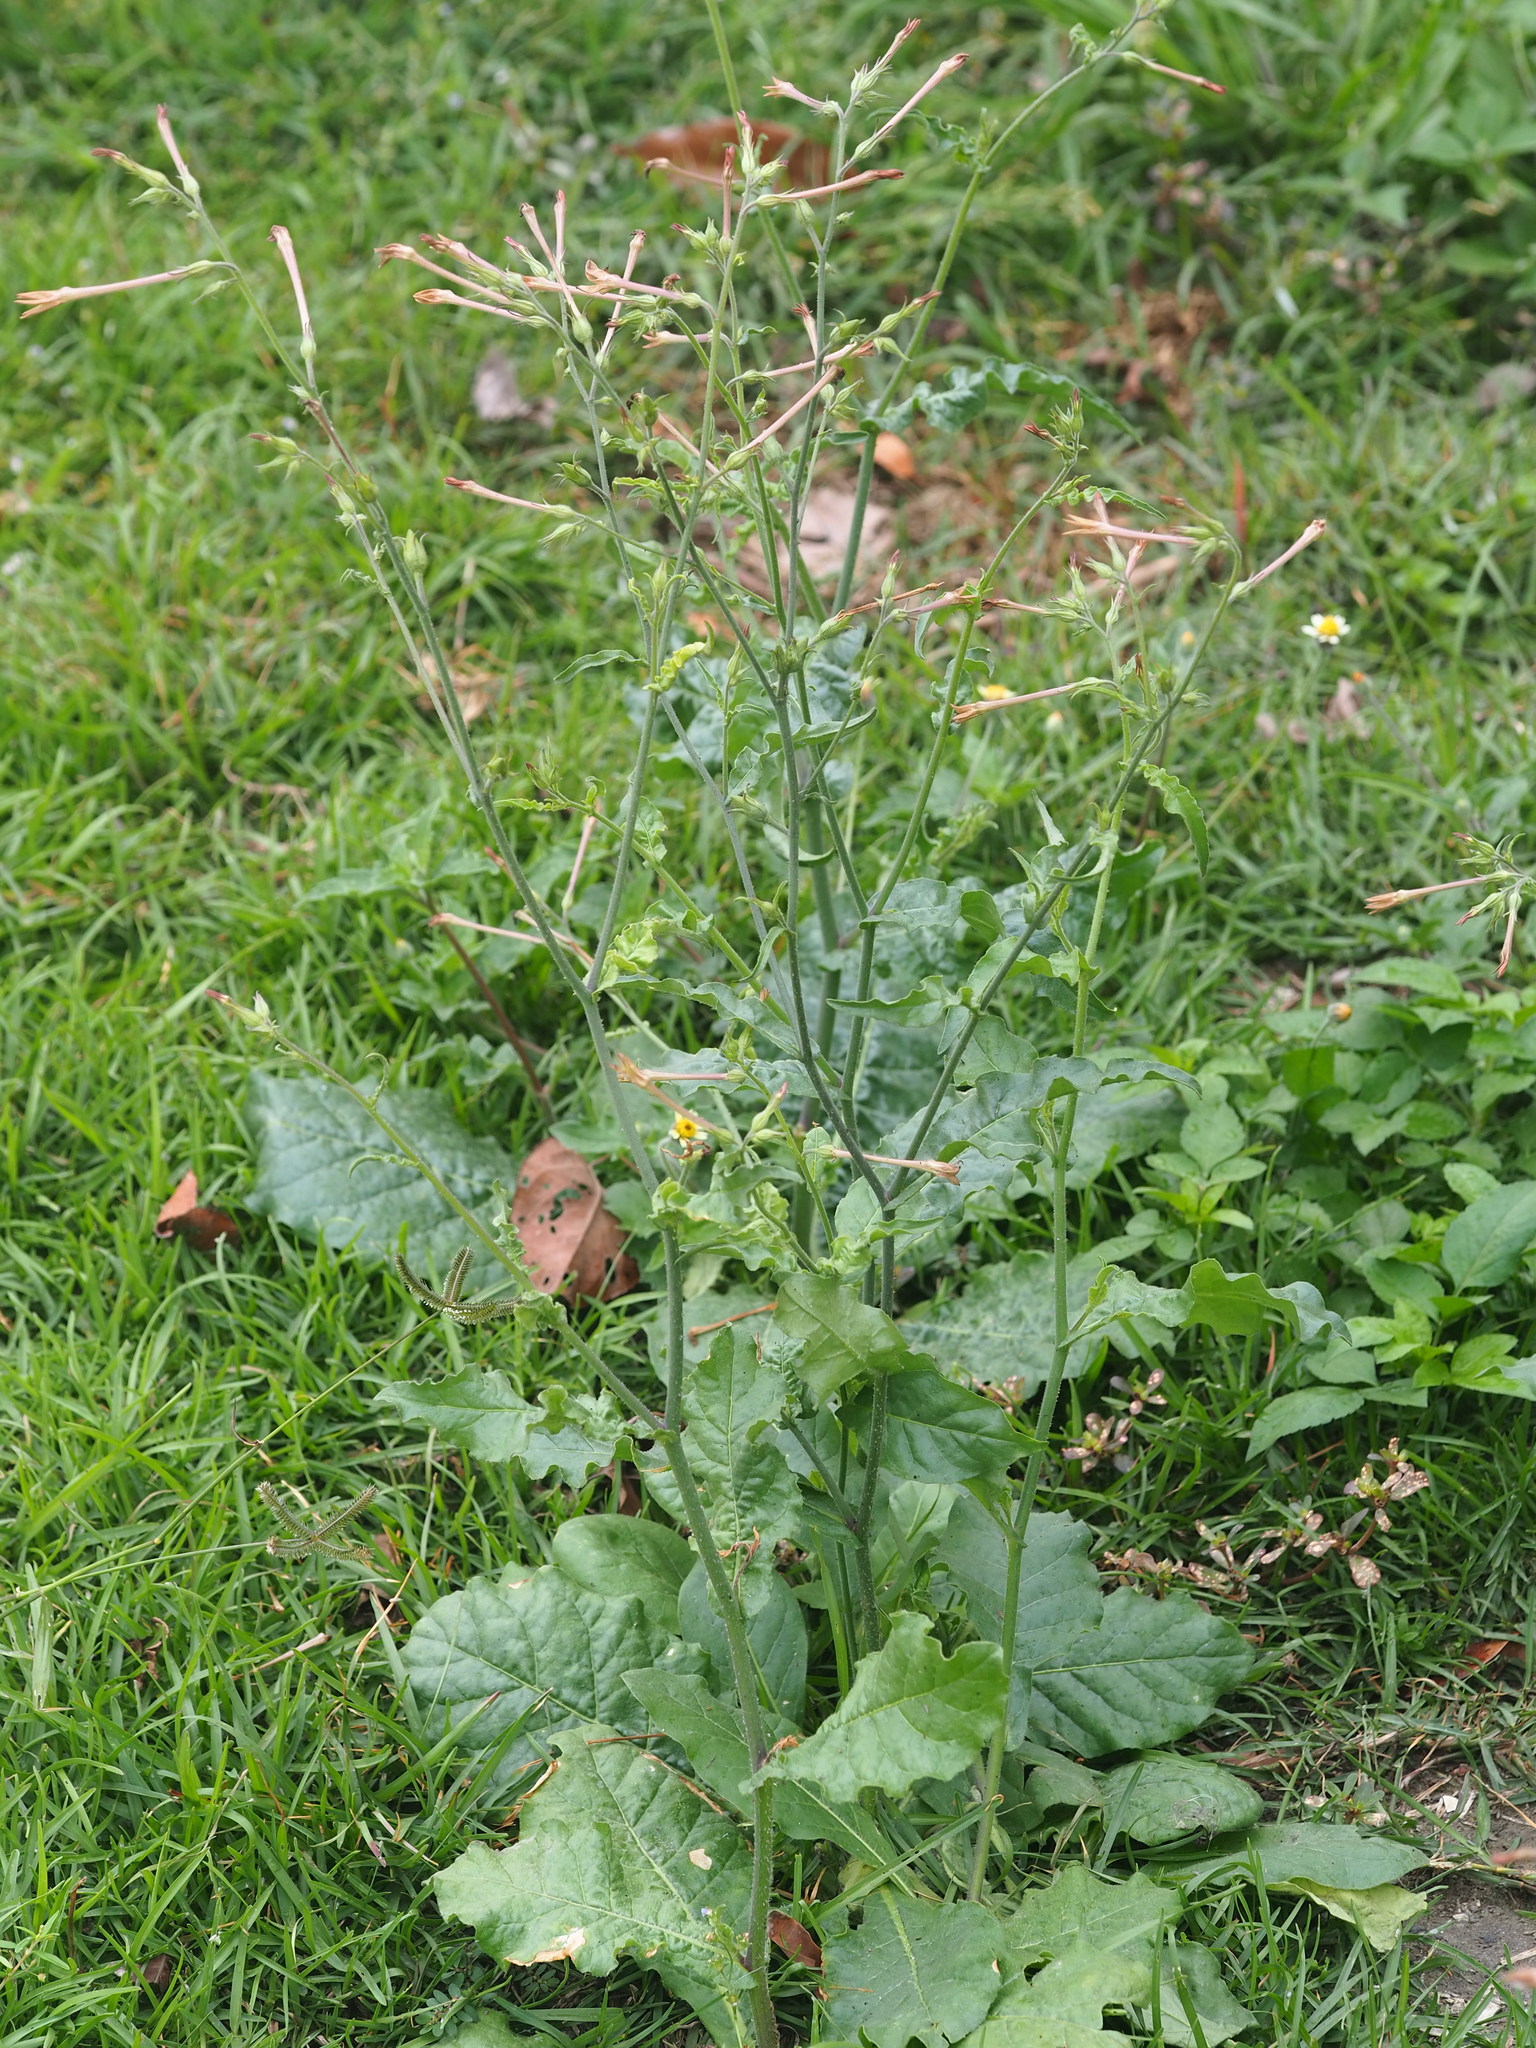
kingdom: Plantae
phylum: Tracheophyta
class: Magnoliopsida
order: Solanales
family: Solanaceae
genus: Nicotiana
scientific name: Nicotiana plumbaginifolia
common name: Tex-mex tobacco
